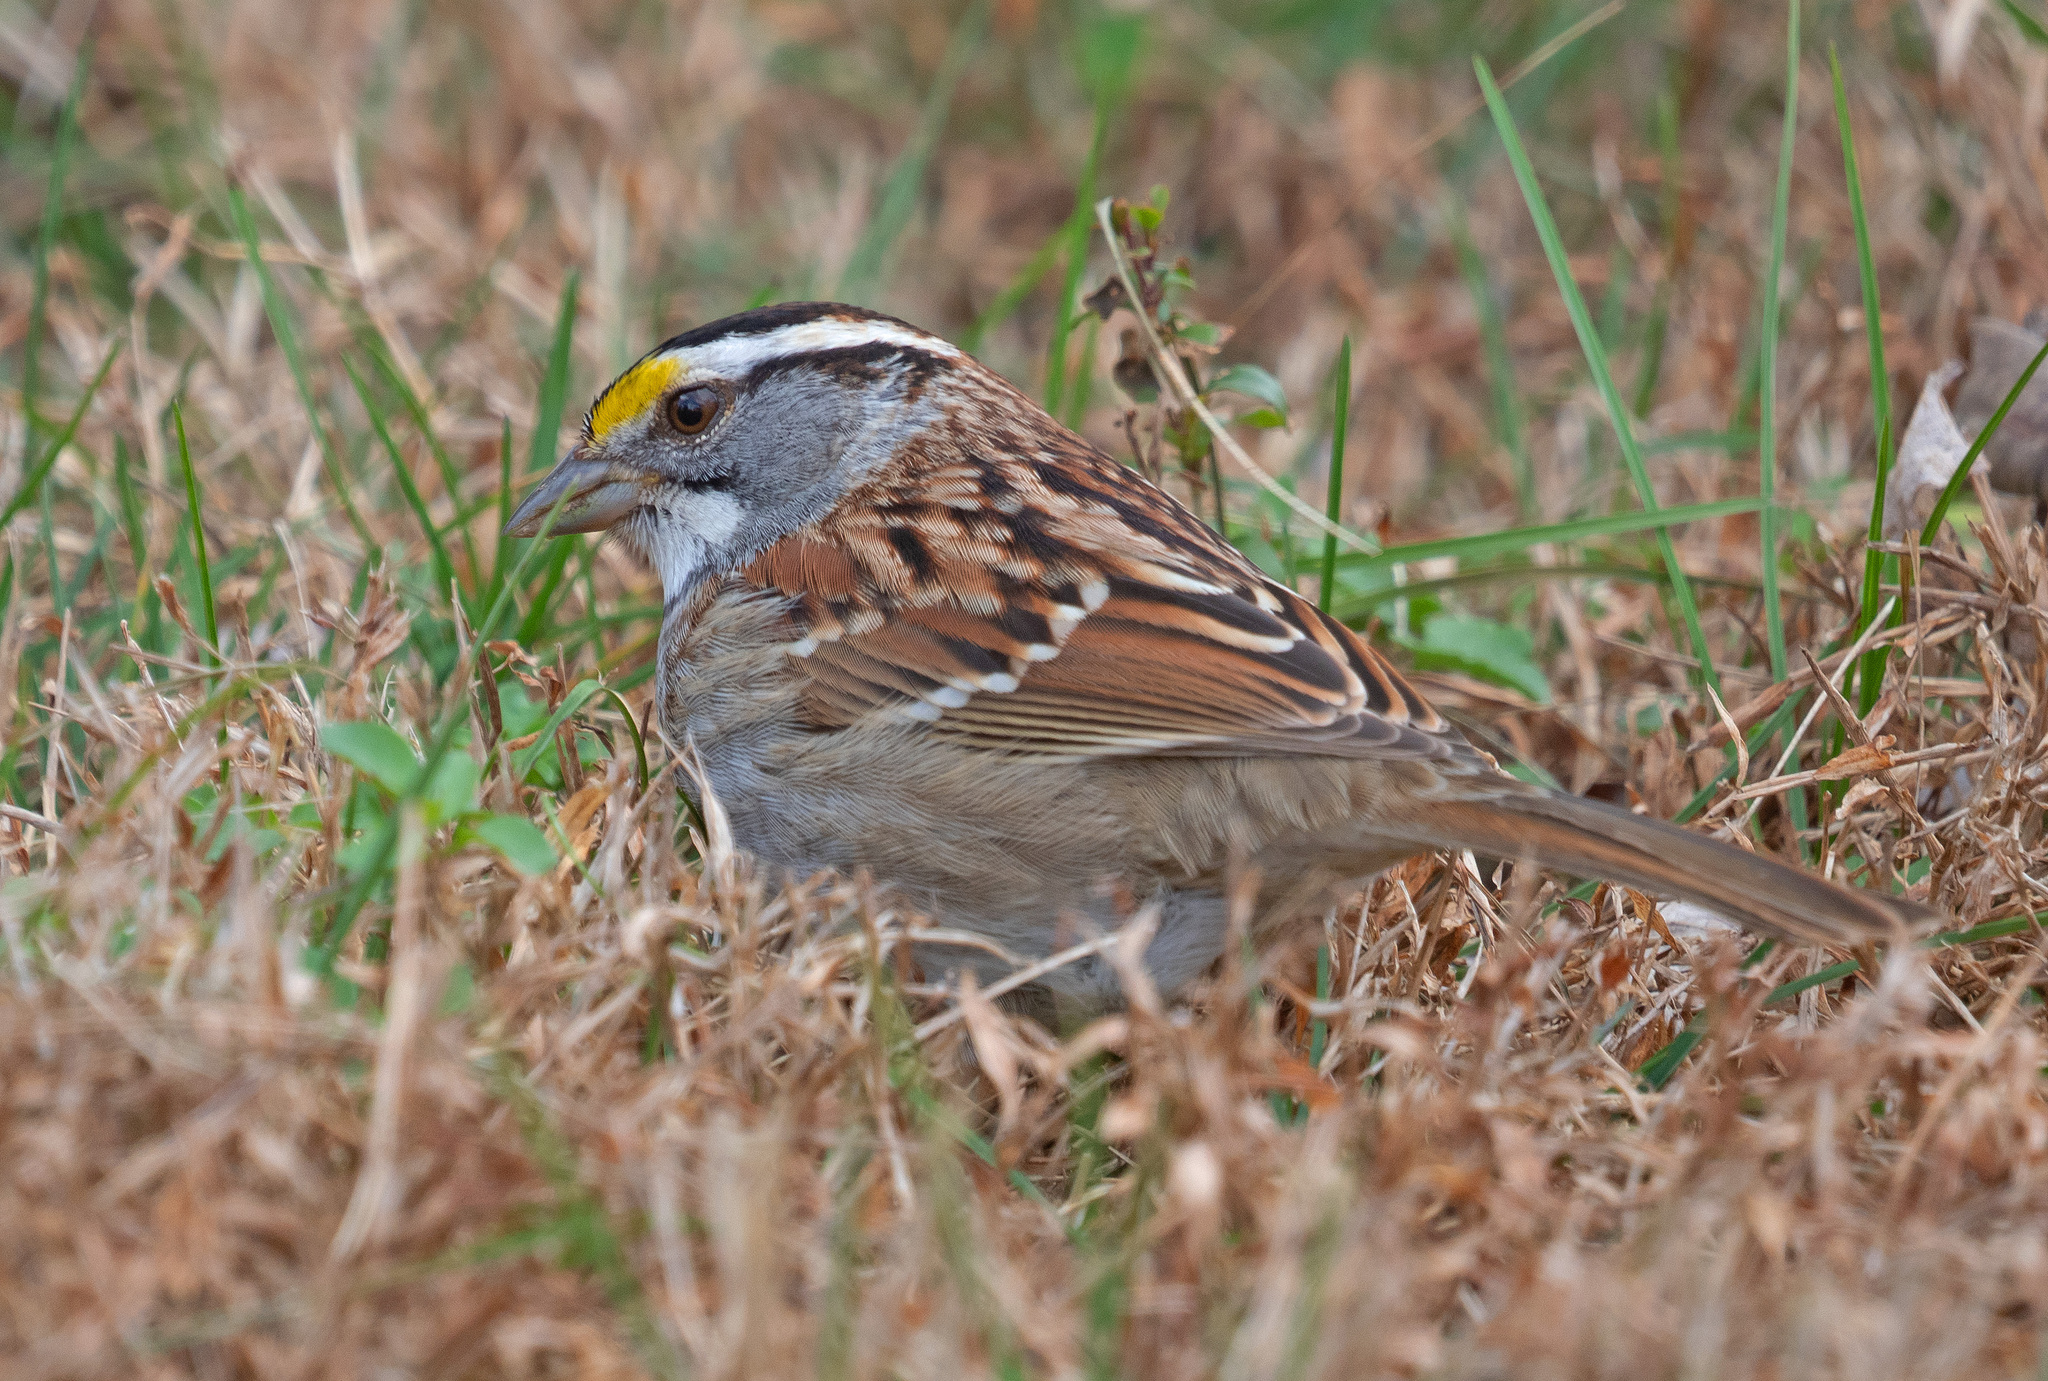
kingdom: Animalia
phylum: Chordata
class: Aves
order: Passeriformes
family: Passerellidae
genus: Zonotrichia
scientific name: Zonotrichia albicollis
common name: White-throated sparrow
